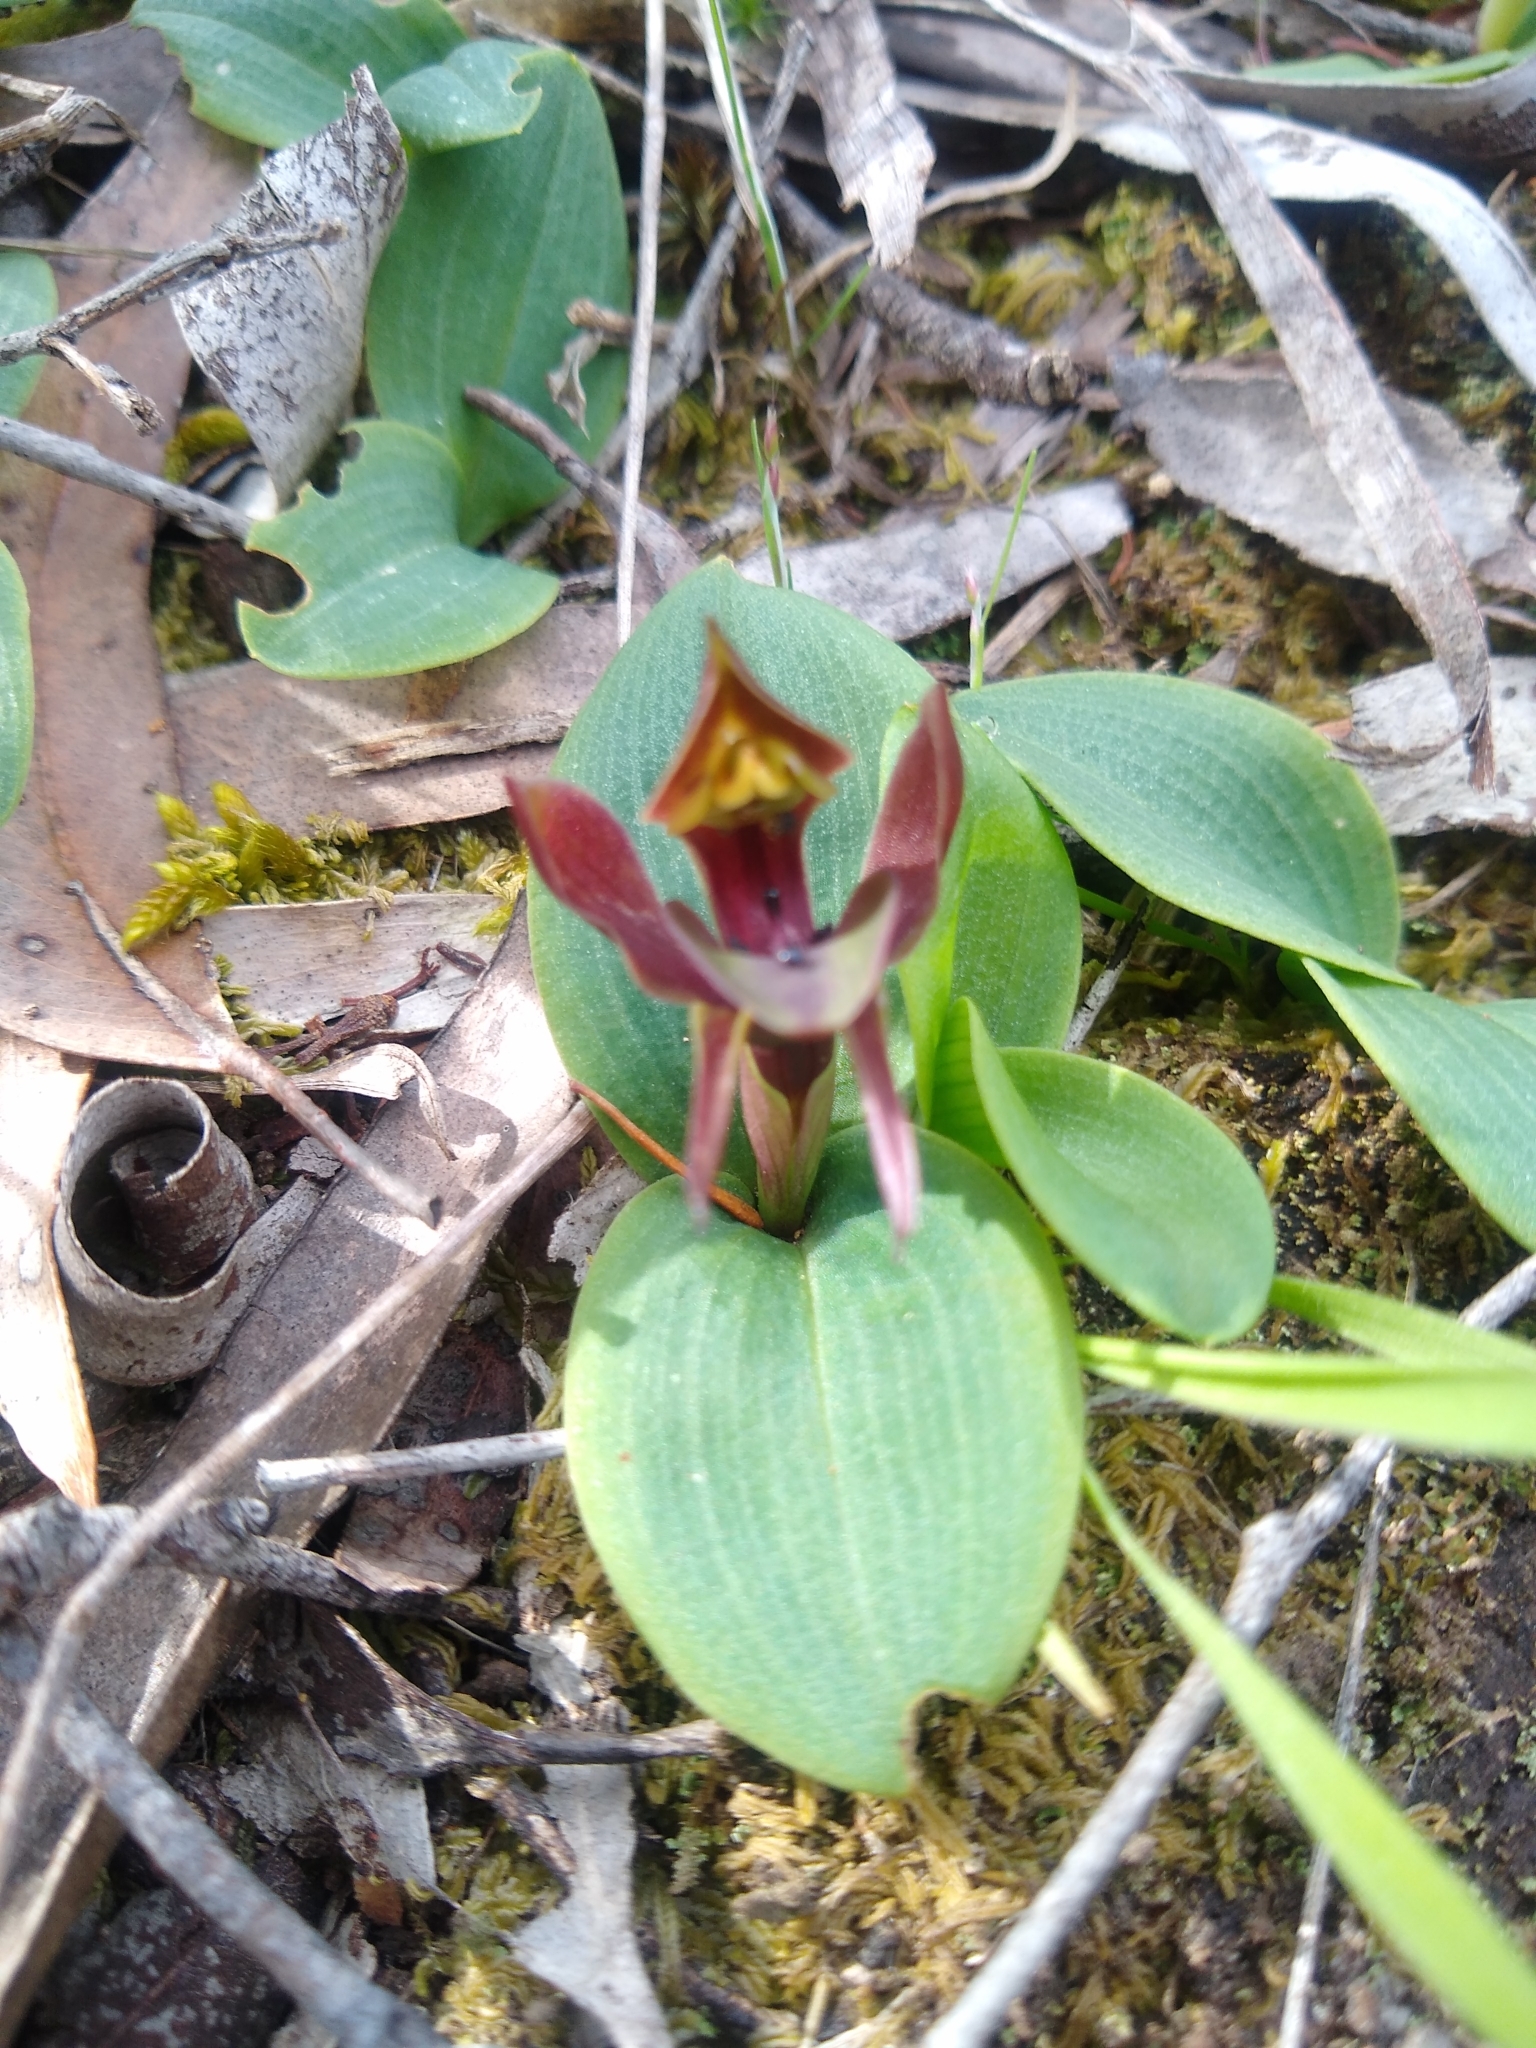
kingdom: Plantae
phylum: Tracheophyta
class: Liliopsida
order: Asparagales
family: Orchidaceae
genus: Chiloglottis
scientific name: Chiloglottis valida
